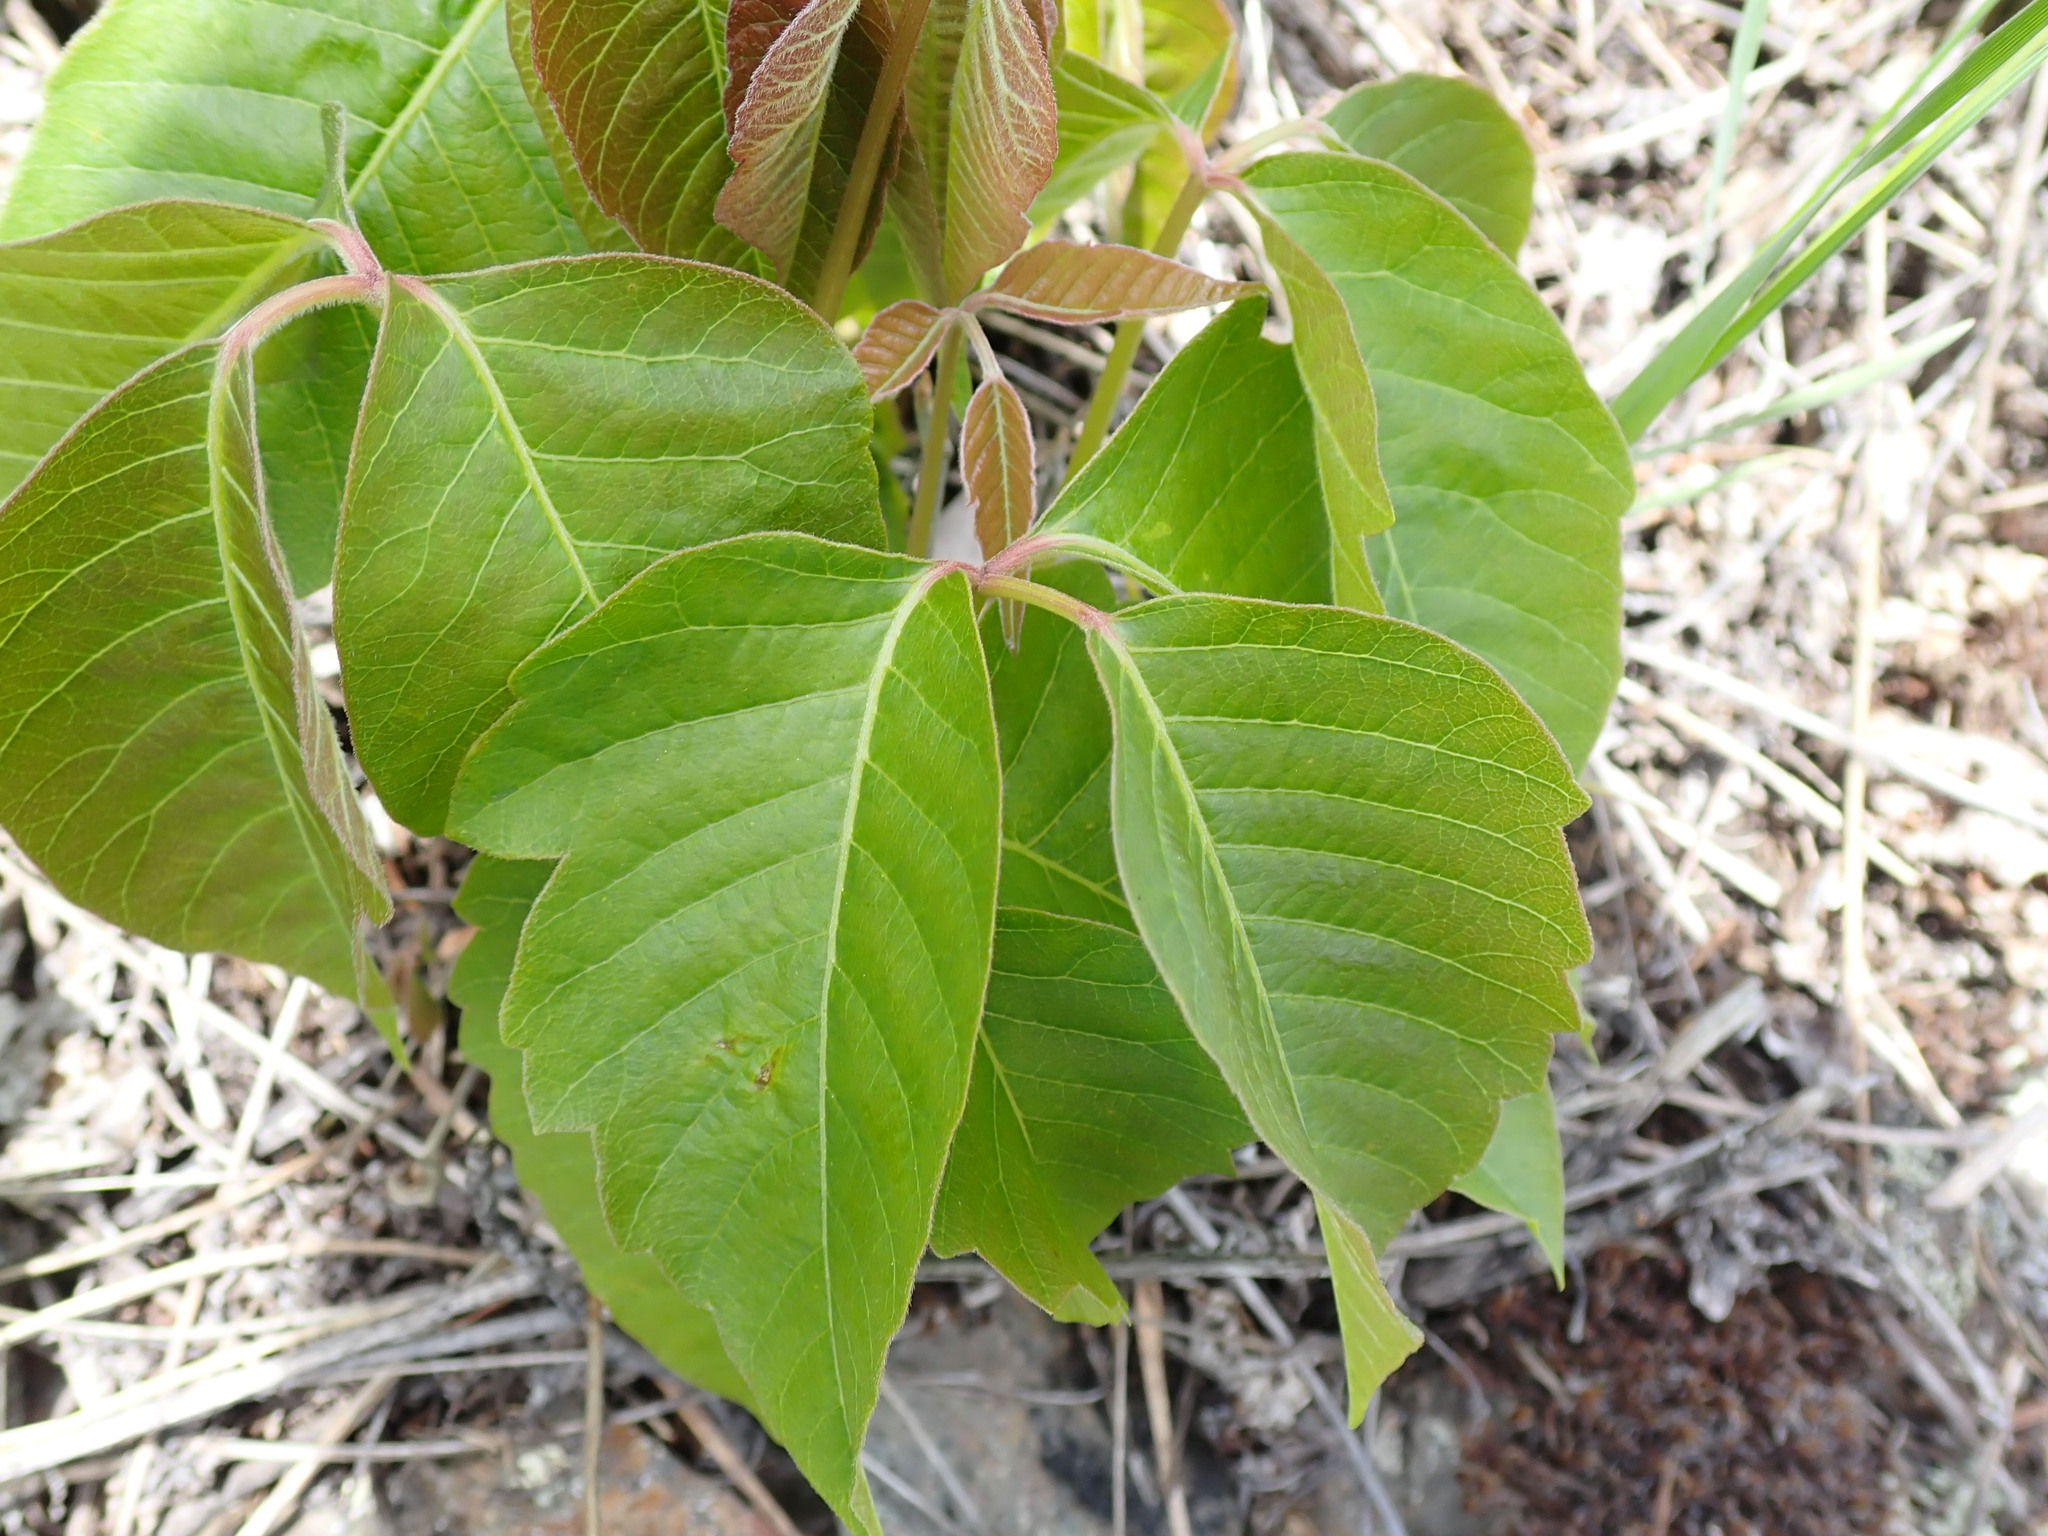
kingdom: Plantae
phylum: Tracheophyta
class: Magnoliopsida
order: Sapindales
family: Anacardiaceae
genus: Toxicodendron
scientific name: Toxicodendron rydbergii
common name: Rydberg's poison-ivy
